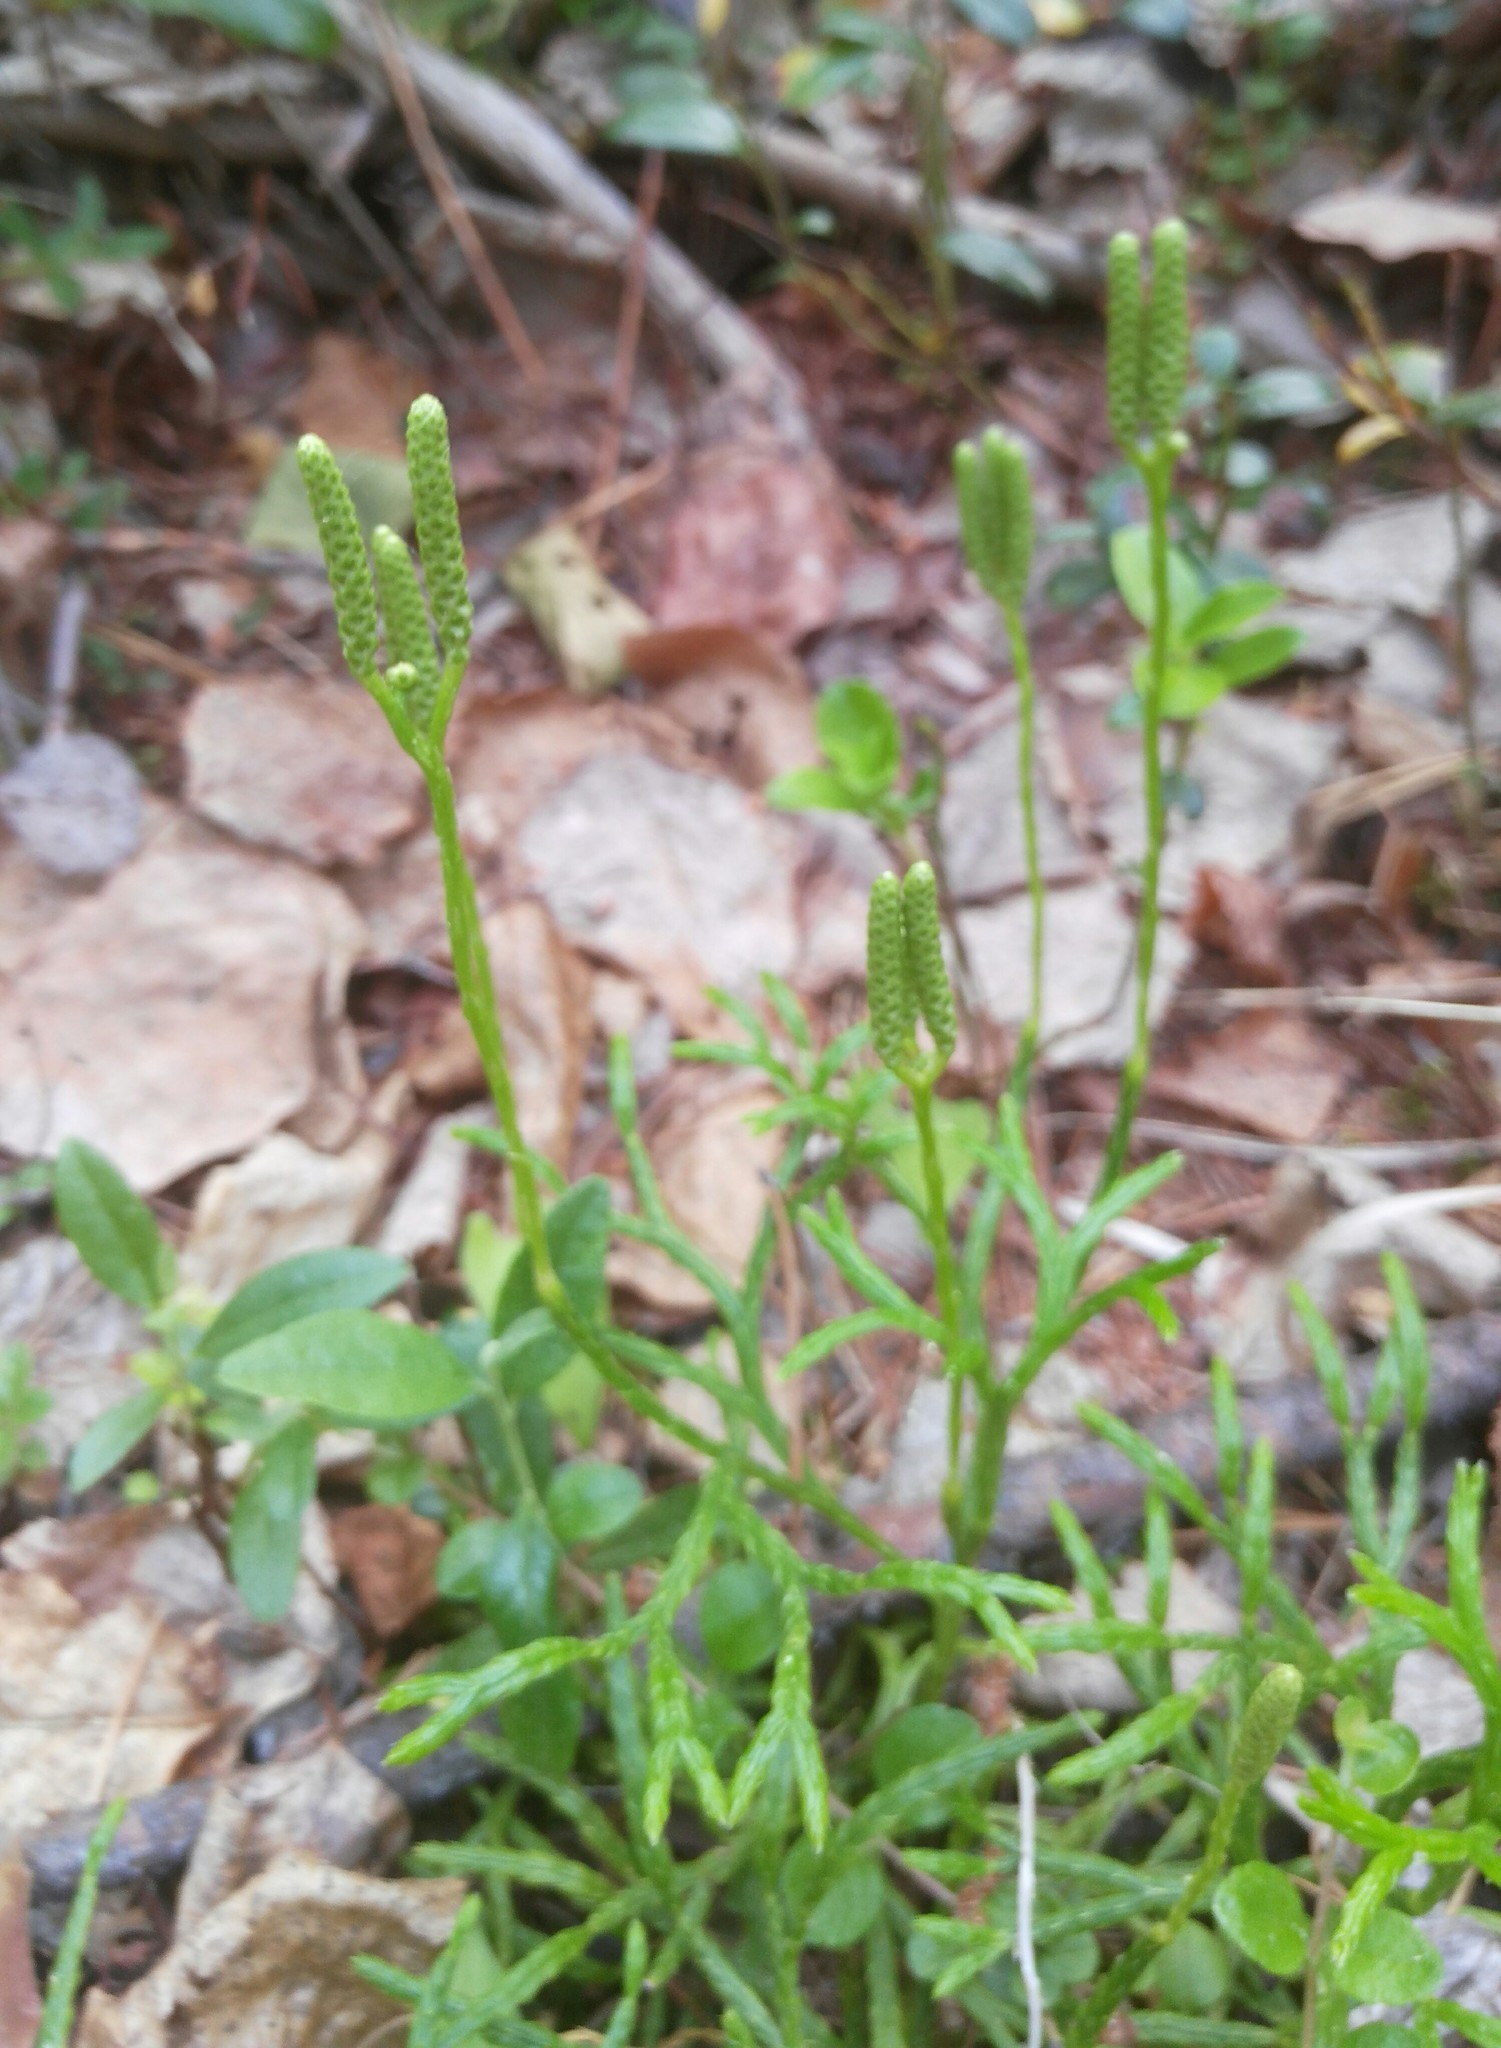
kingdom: Plantae
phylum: Tracheophyta
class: Lycopodiopsida
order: Lycopodiales
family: Lycopodiaceae
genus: Diphasiastrum
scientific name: Diphasiastrum complanatum
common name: Northern running-pine
